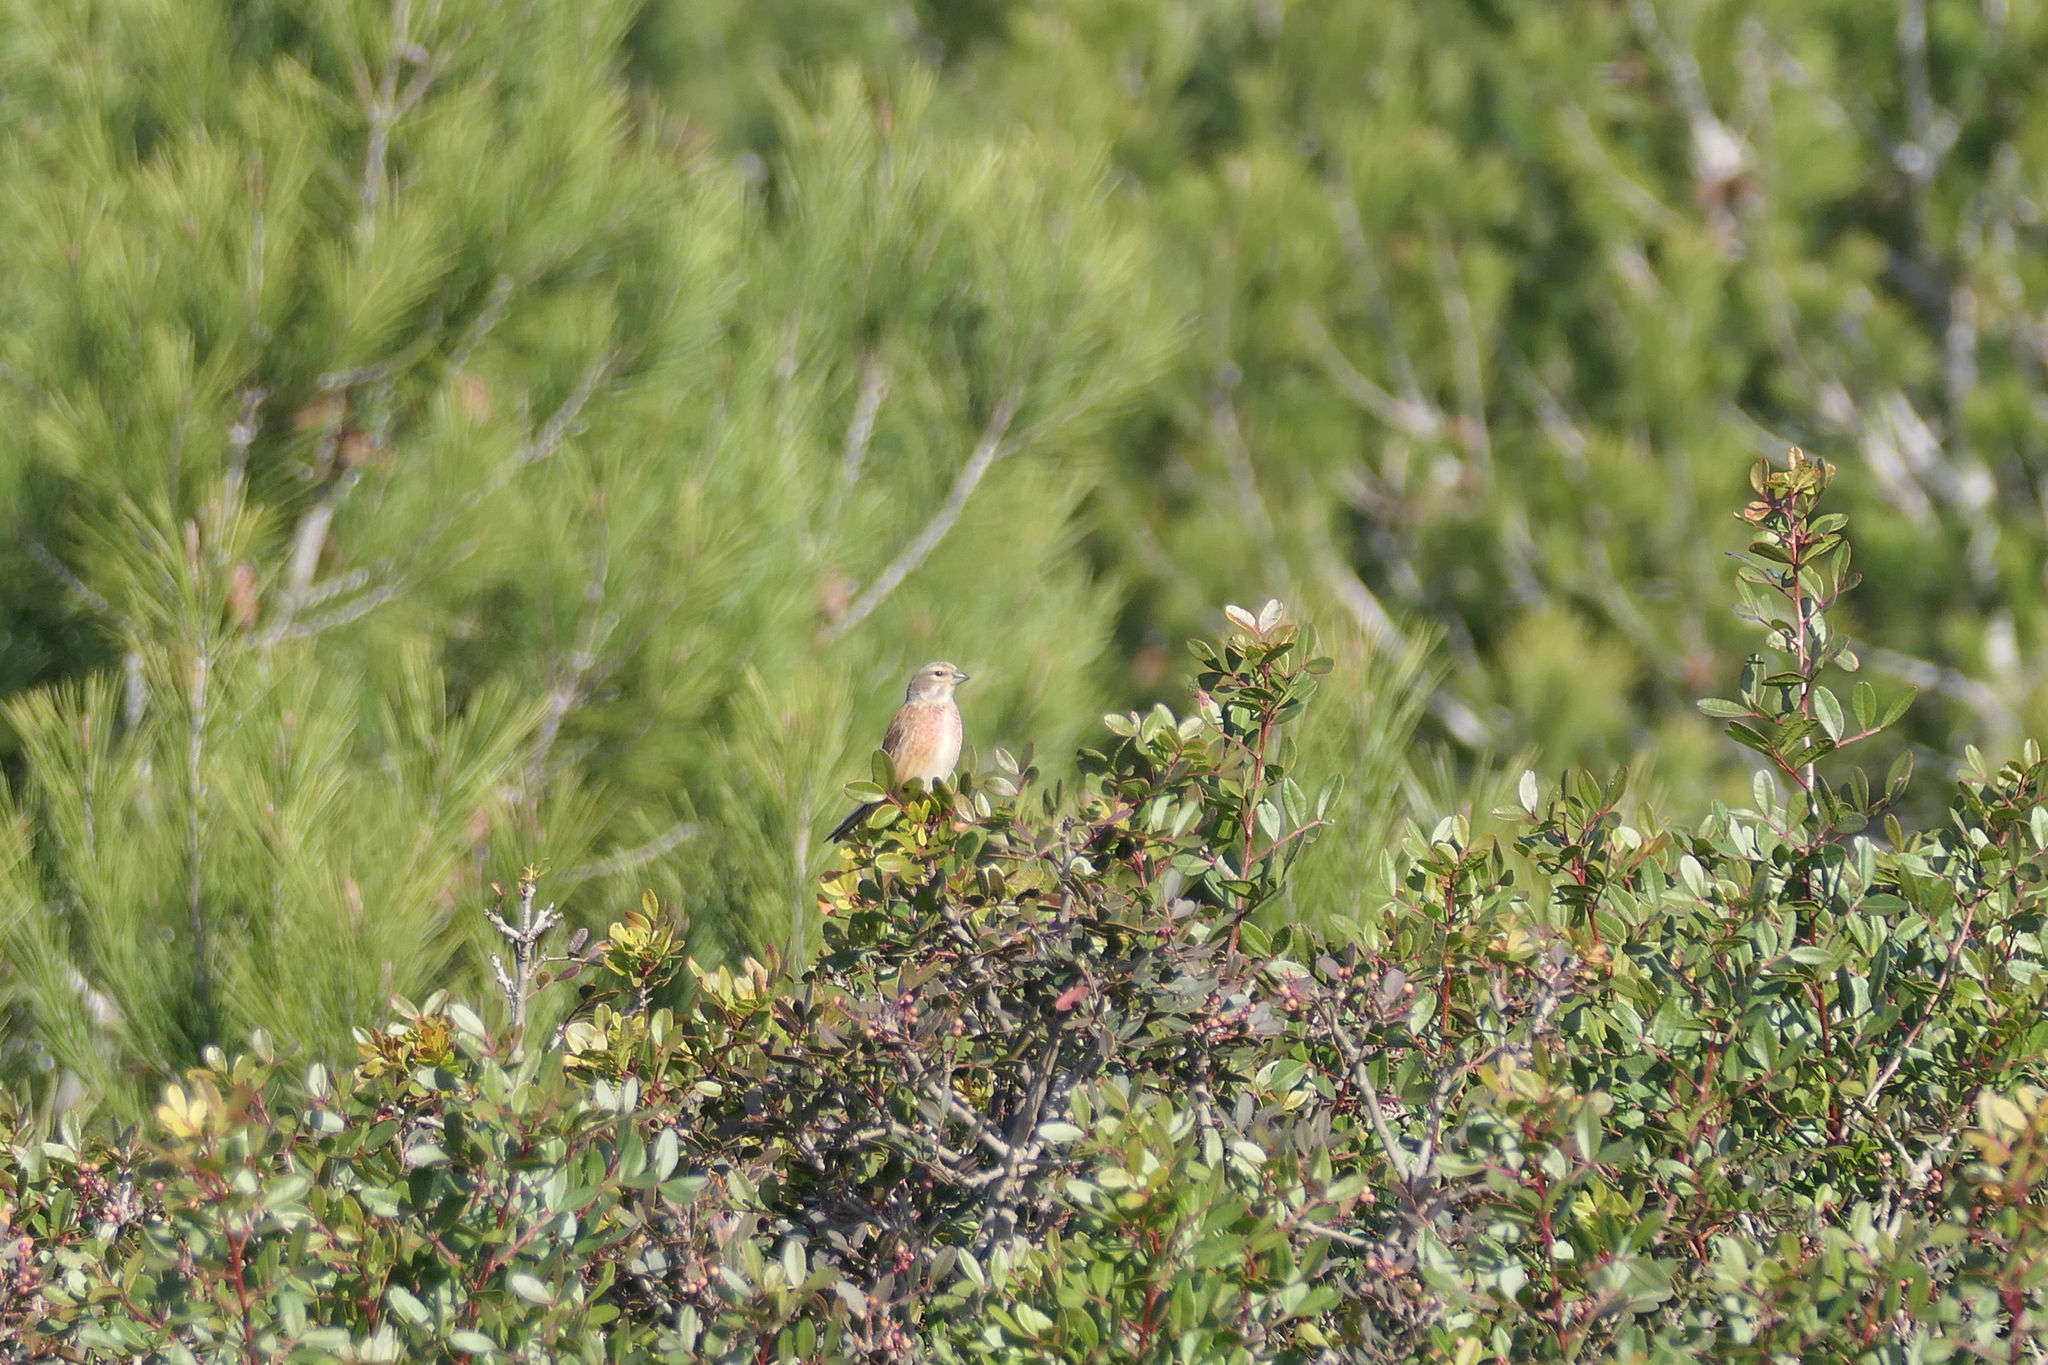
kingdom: Animalia
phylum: Chordata
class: Aves
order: Passeriformes
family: Fringillidae
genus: Linaria
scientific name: Linaria cannabina
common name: Common linnet
